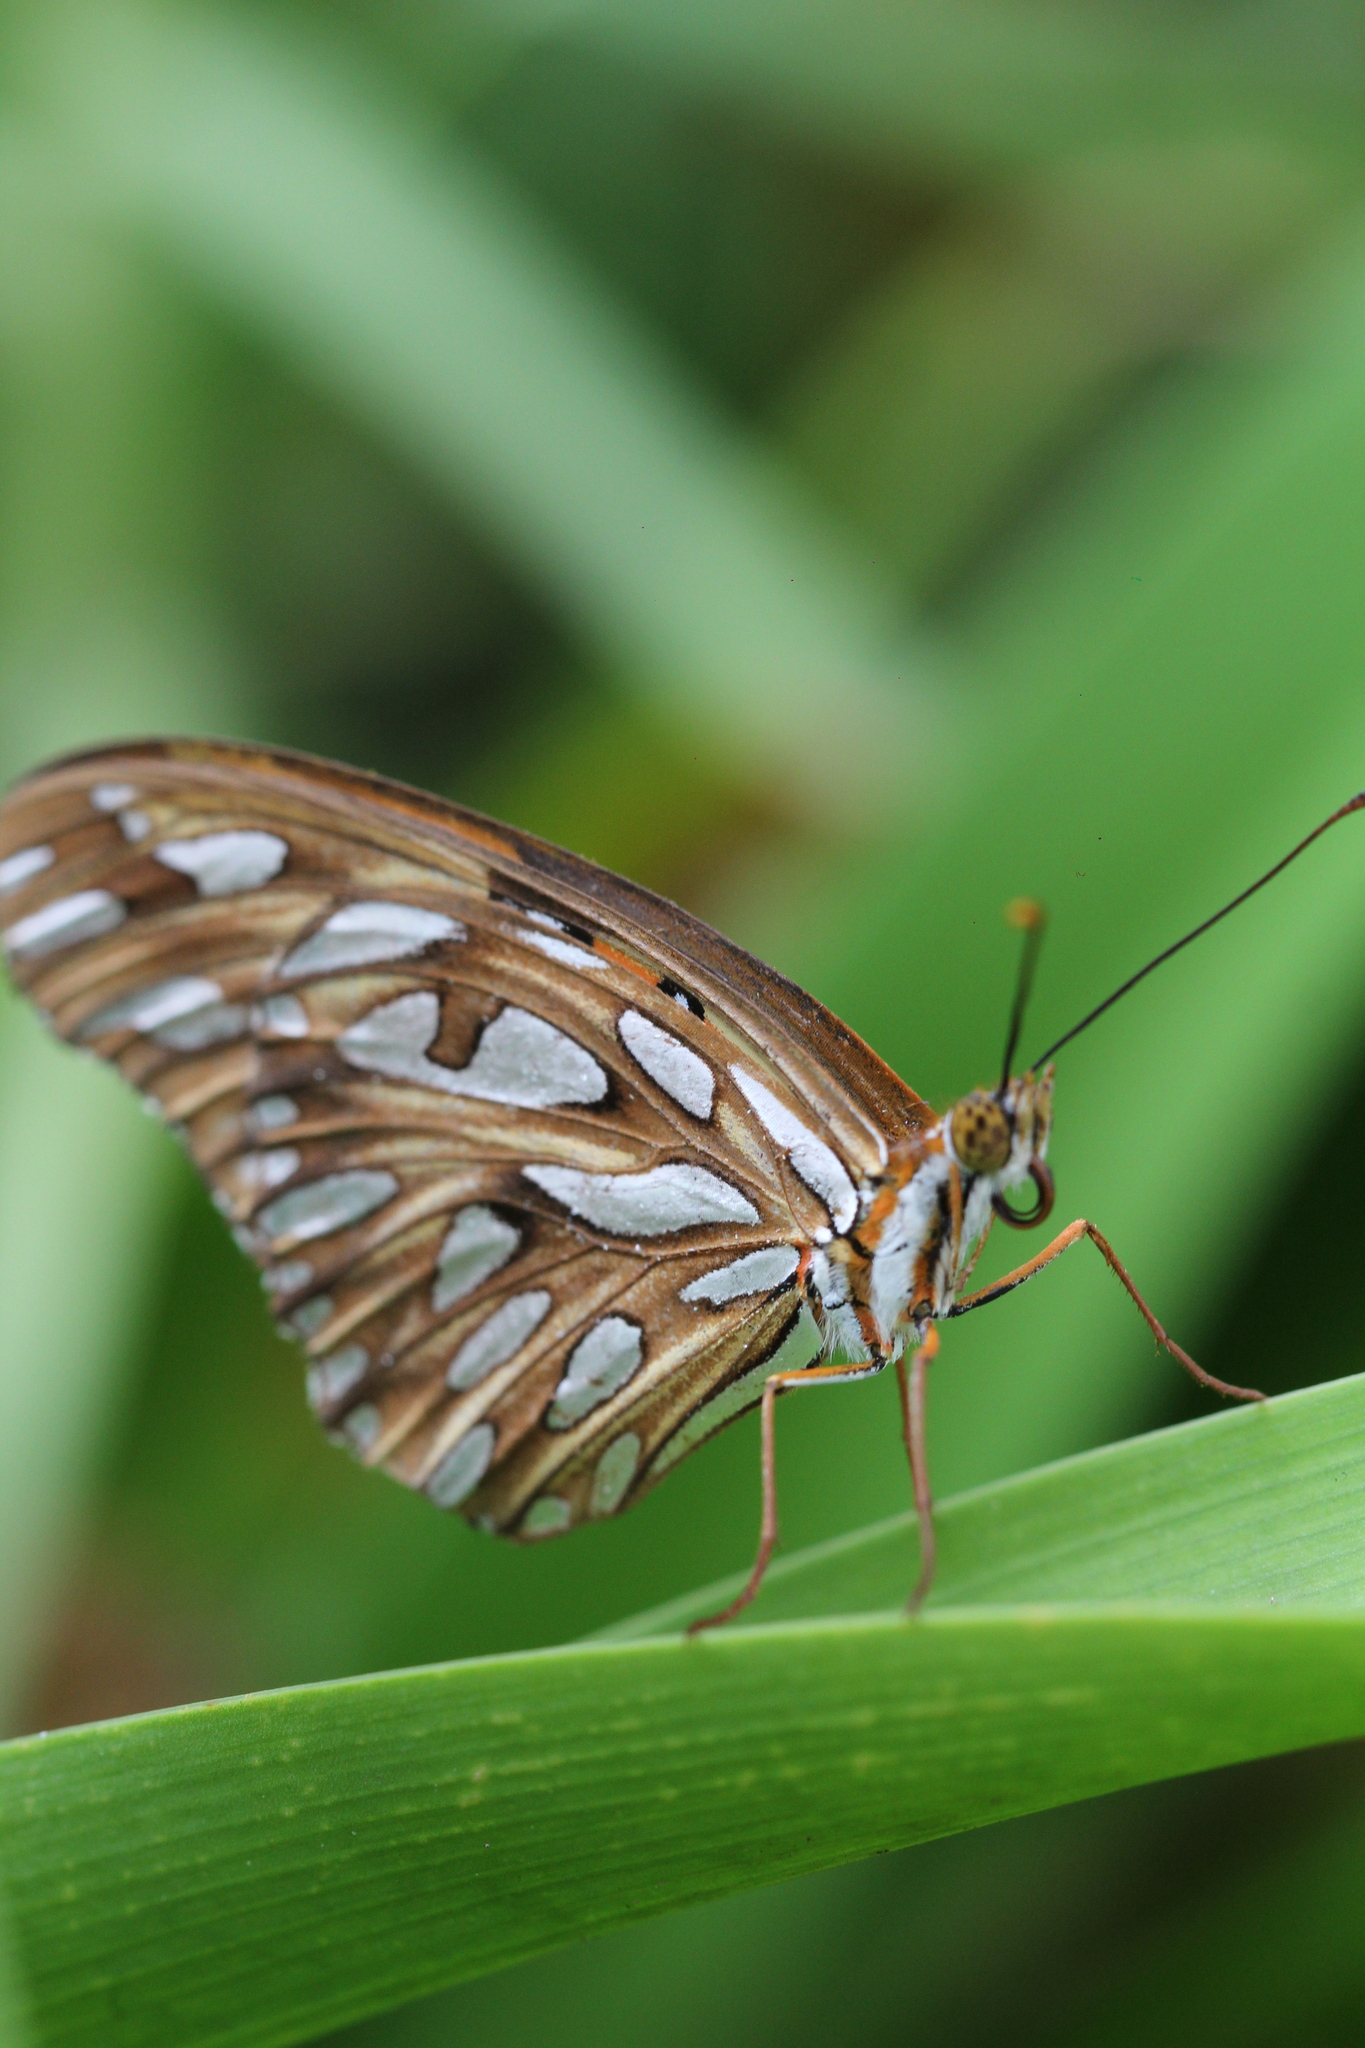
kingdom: Animalia
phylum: Arthropoda
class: Insecta
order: Lepidoptera
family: Nymphalidae
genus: Dione
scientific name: Dione vanillae
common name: Gulf fritillary
